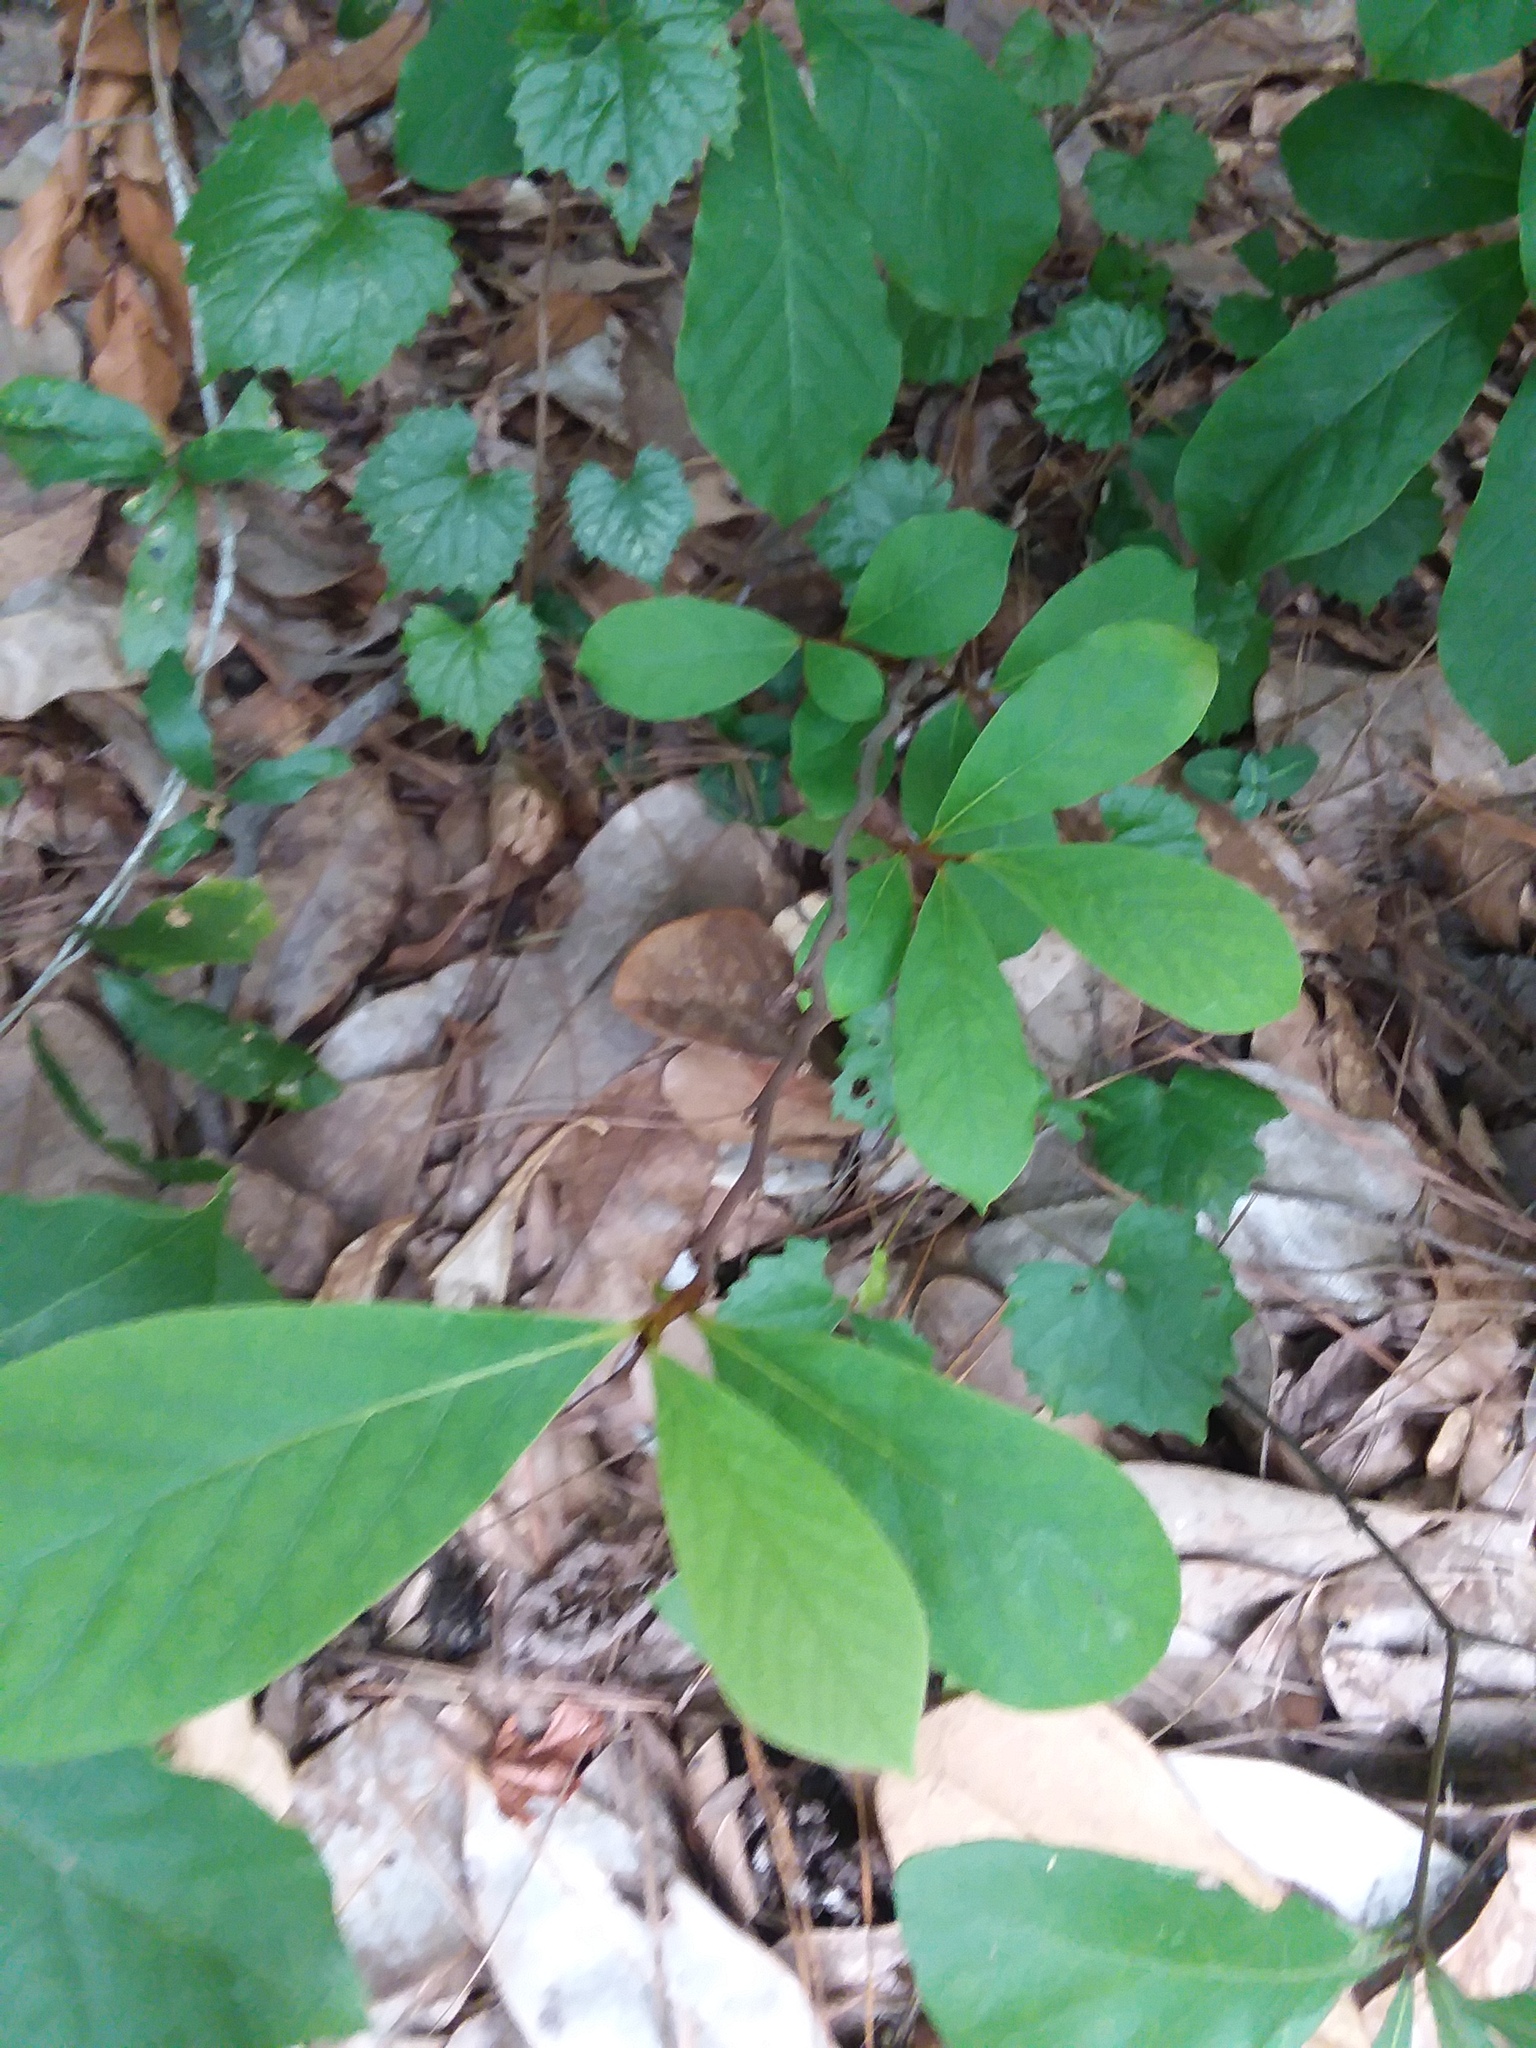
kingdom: Plantae
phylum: Tracheophyta
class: Magnoliopsida
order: Magnoliales
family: Annonaceae
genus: Asimina
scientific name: Asimina parviflora
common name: Dwarf pawpaw
